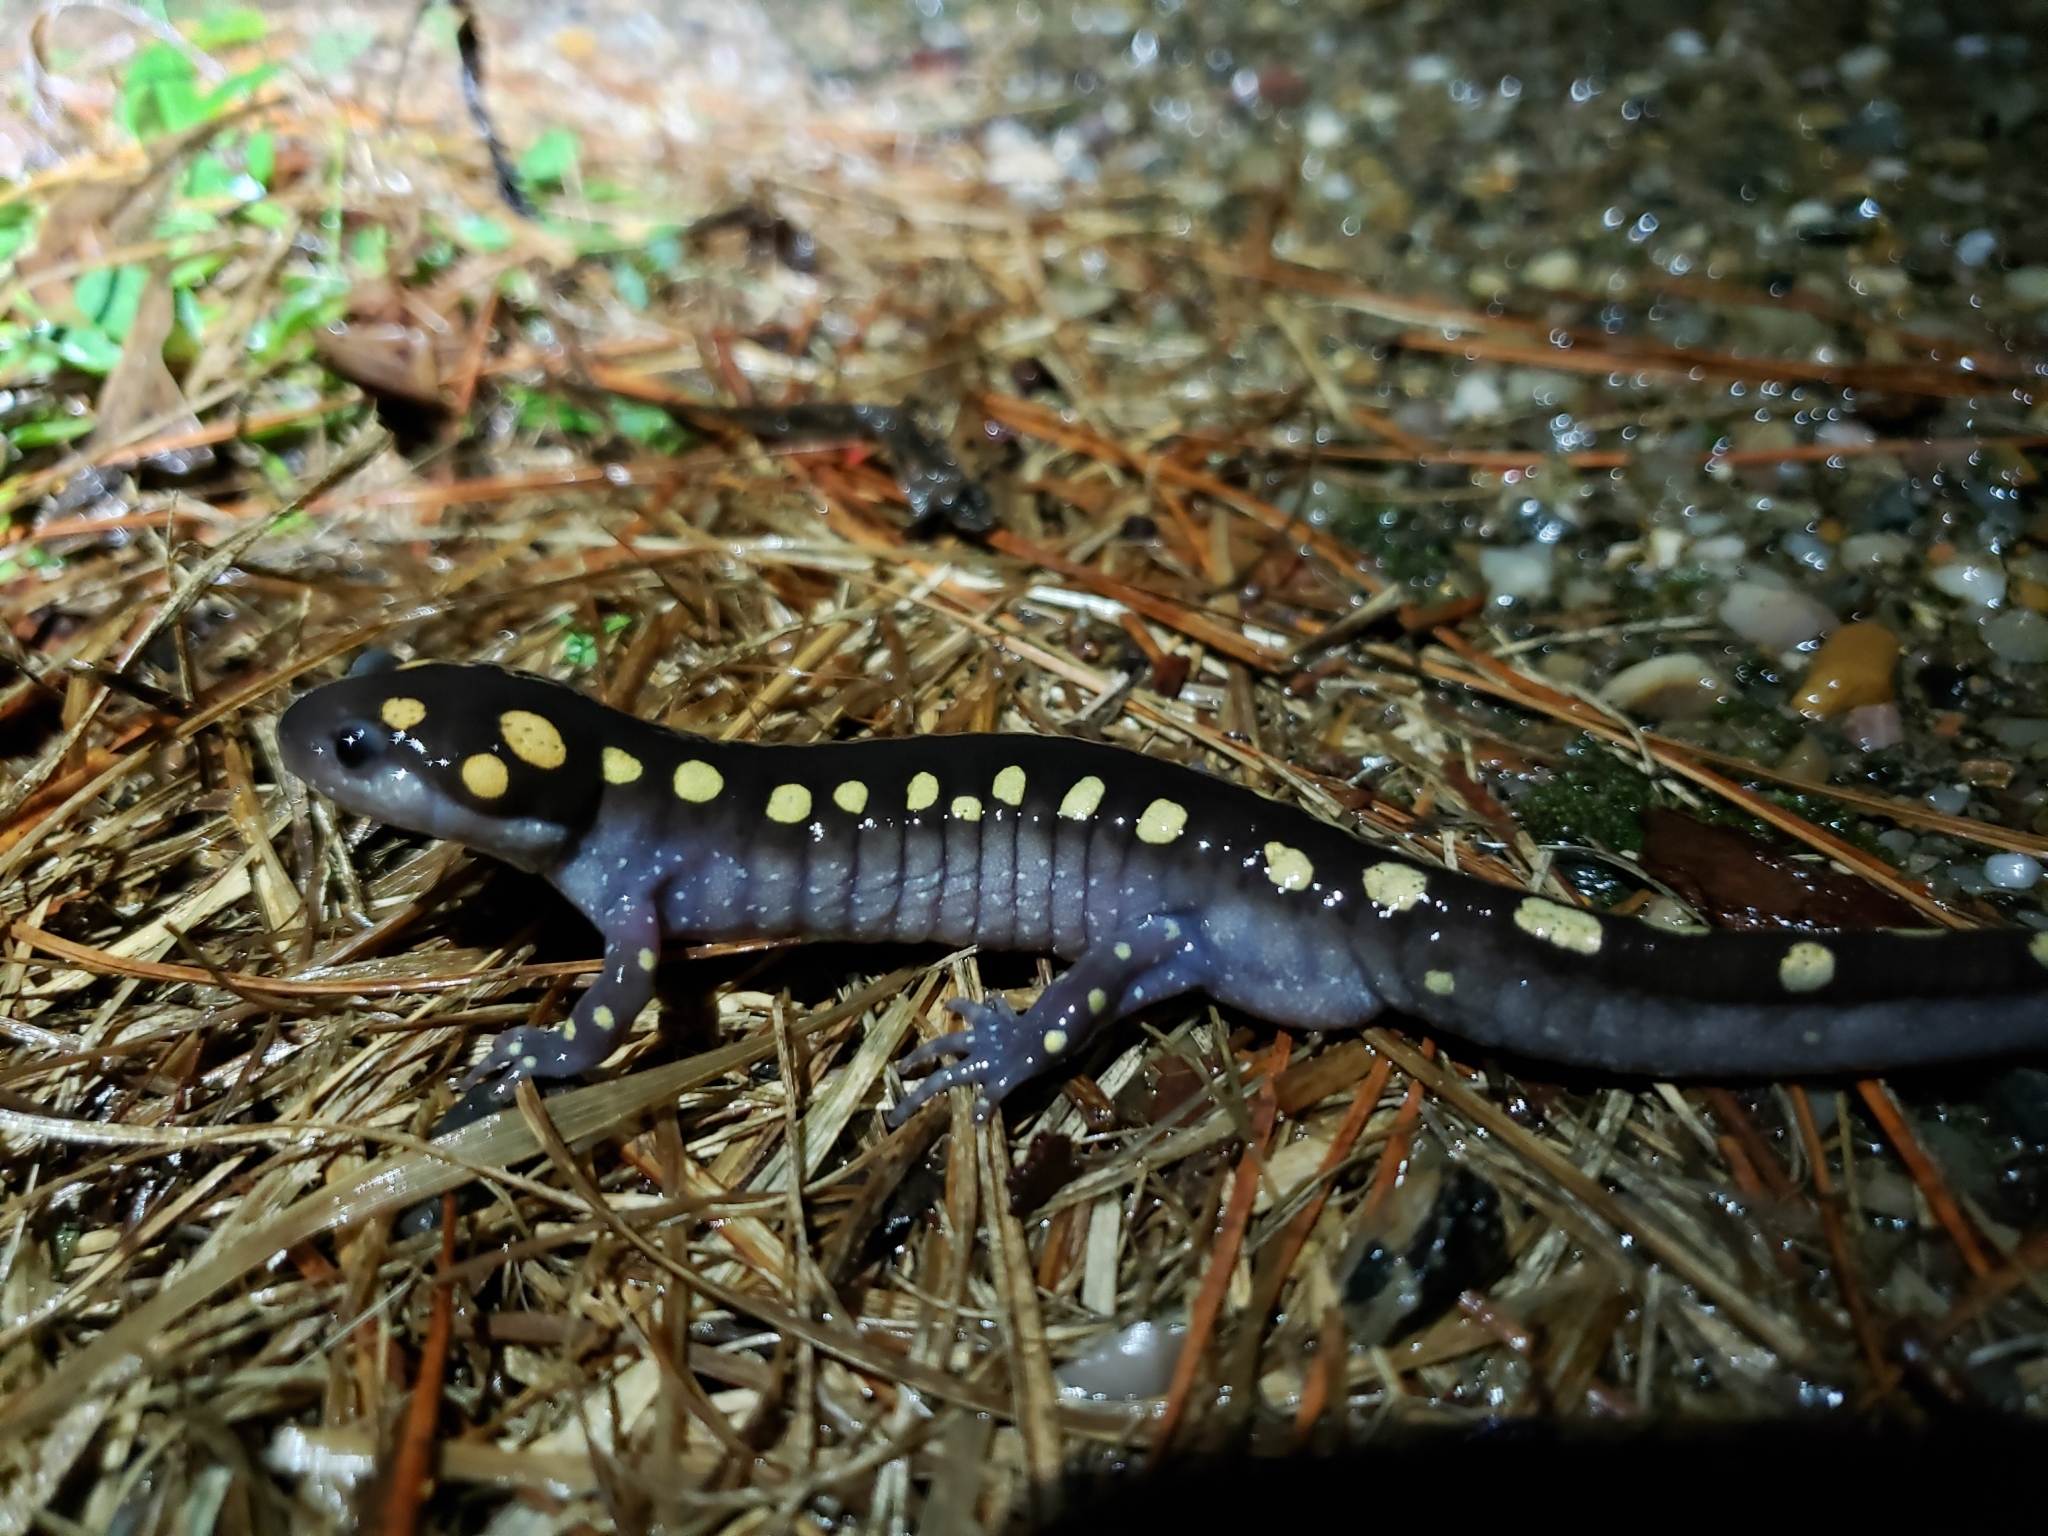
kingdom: Animalia
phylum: Chordata
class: Amphibia
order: Caudata
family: Ambystomatidae
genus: Ambystoma
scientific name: Ambystoma maculatum
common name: Spotted salamander
